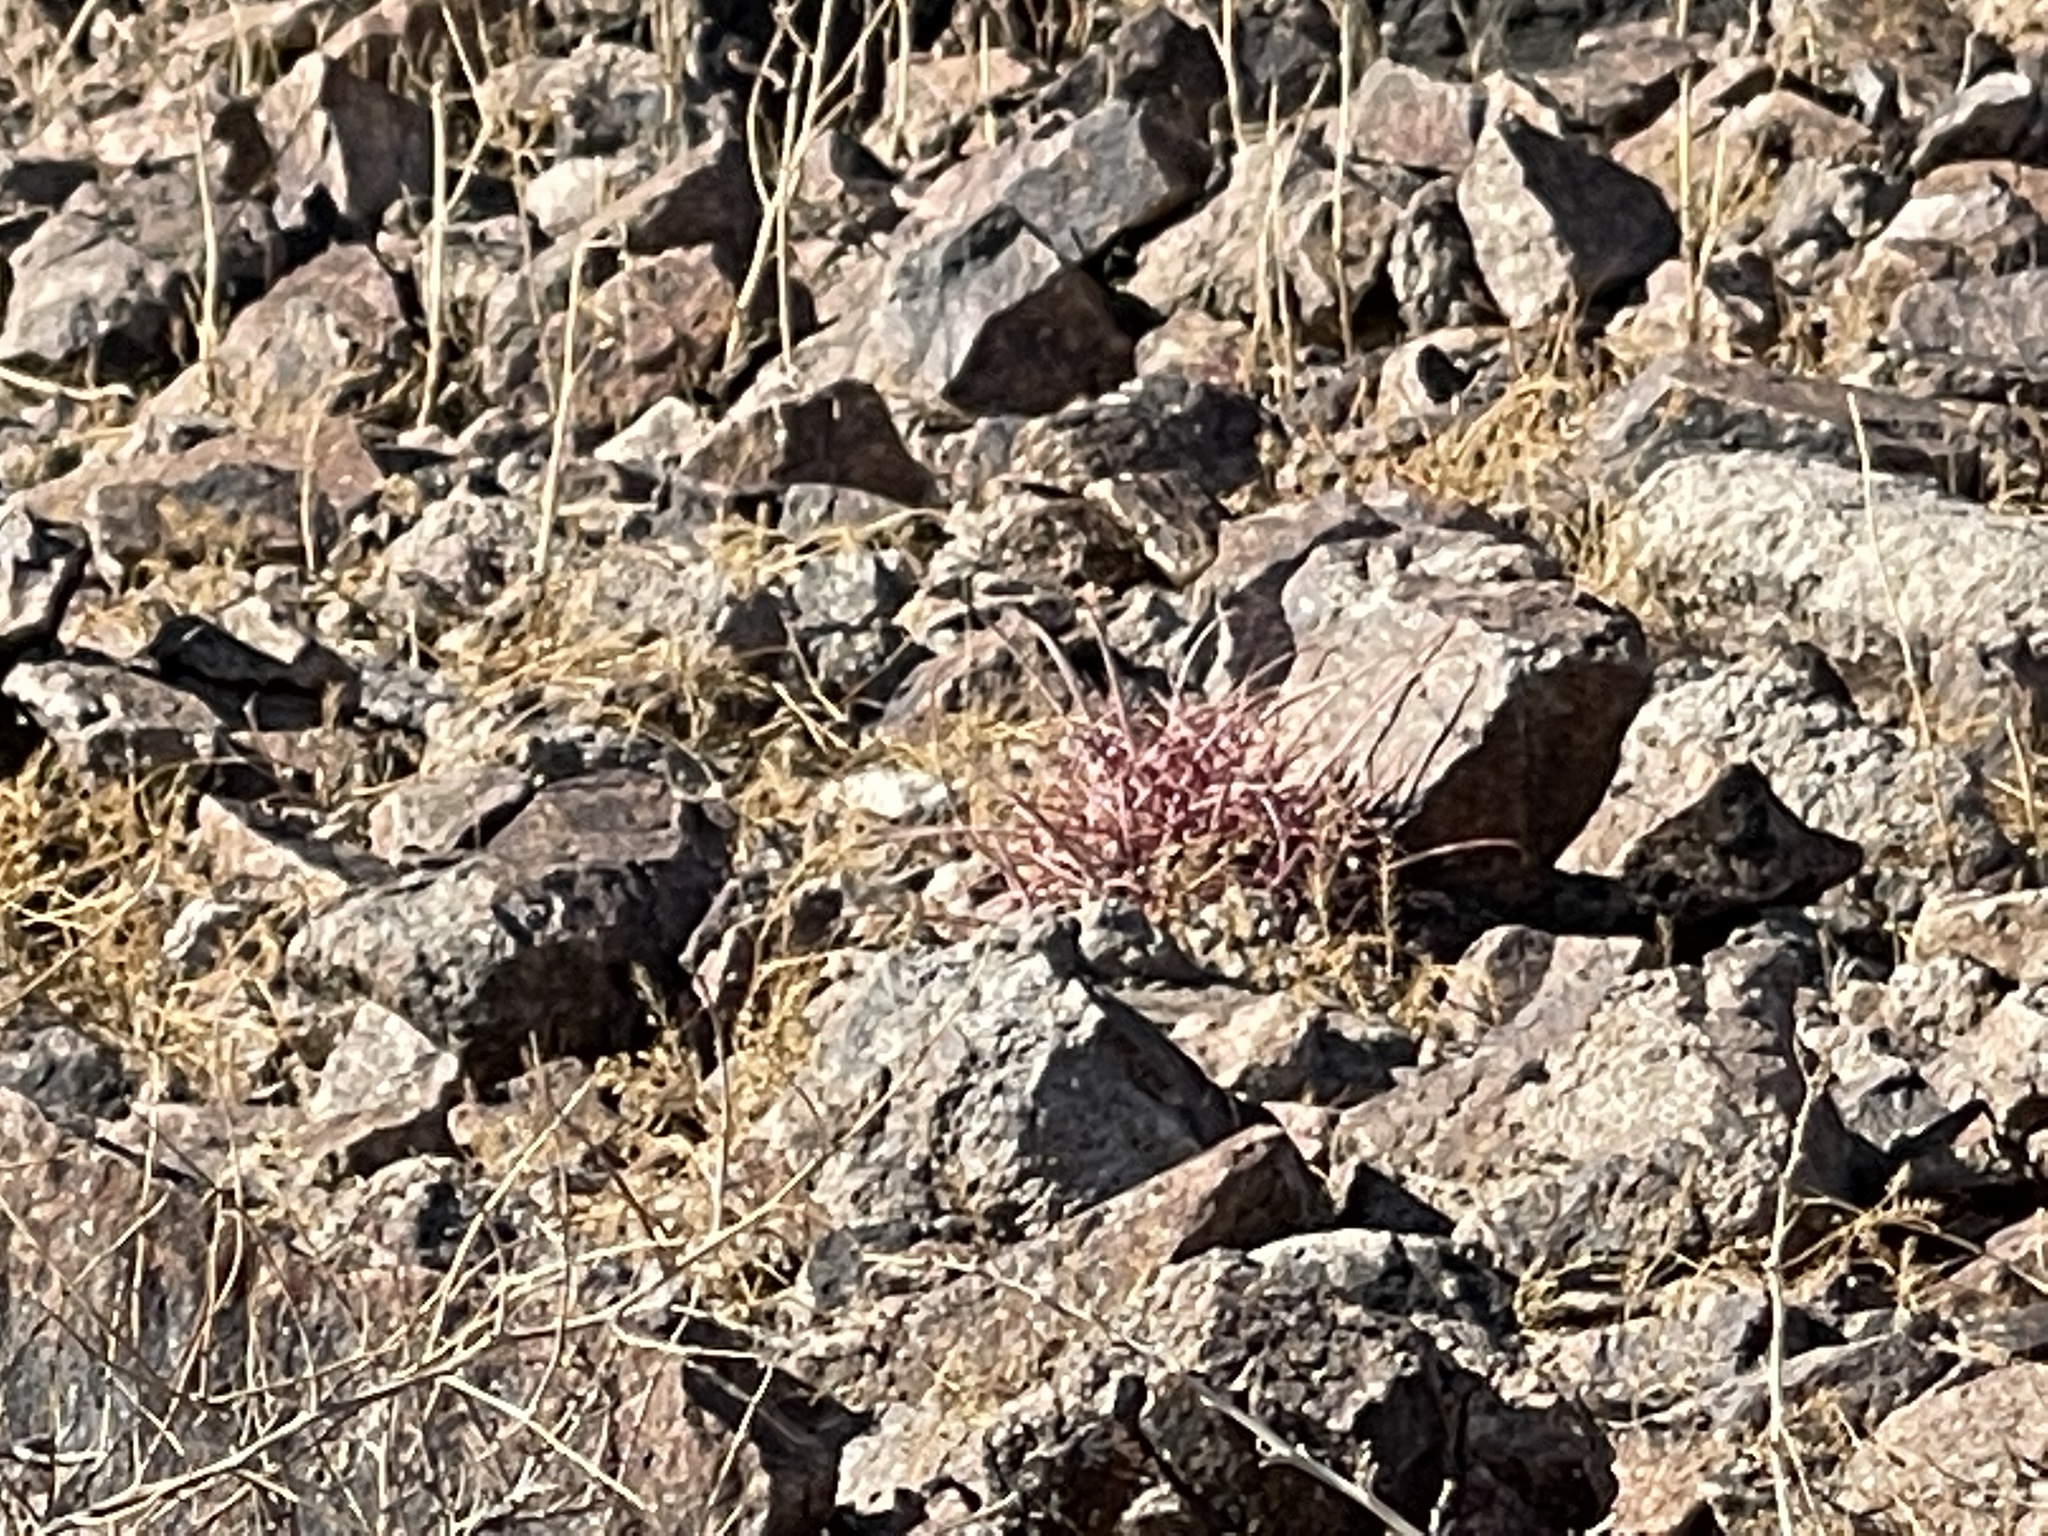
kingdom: Plantae
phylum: Tracheophyta
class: Magnoliopsida
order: Caryophyllales
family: Cactaceae
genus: Ferocactus
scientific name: Ferocactus cylindraceus
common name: California barrel cactus
